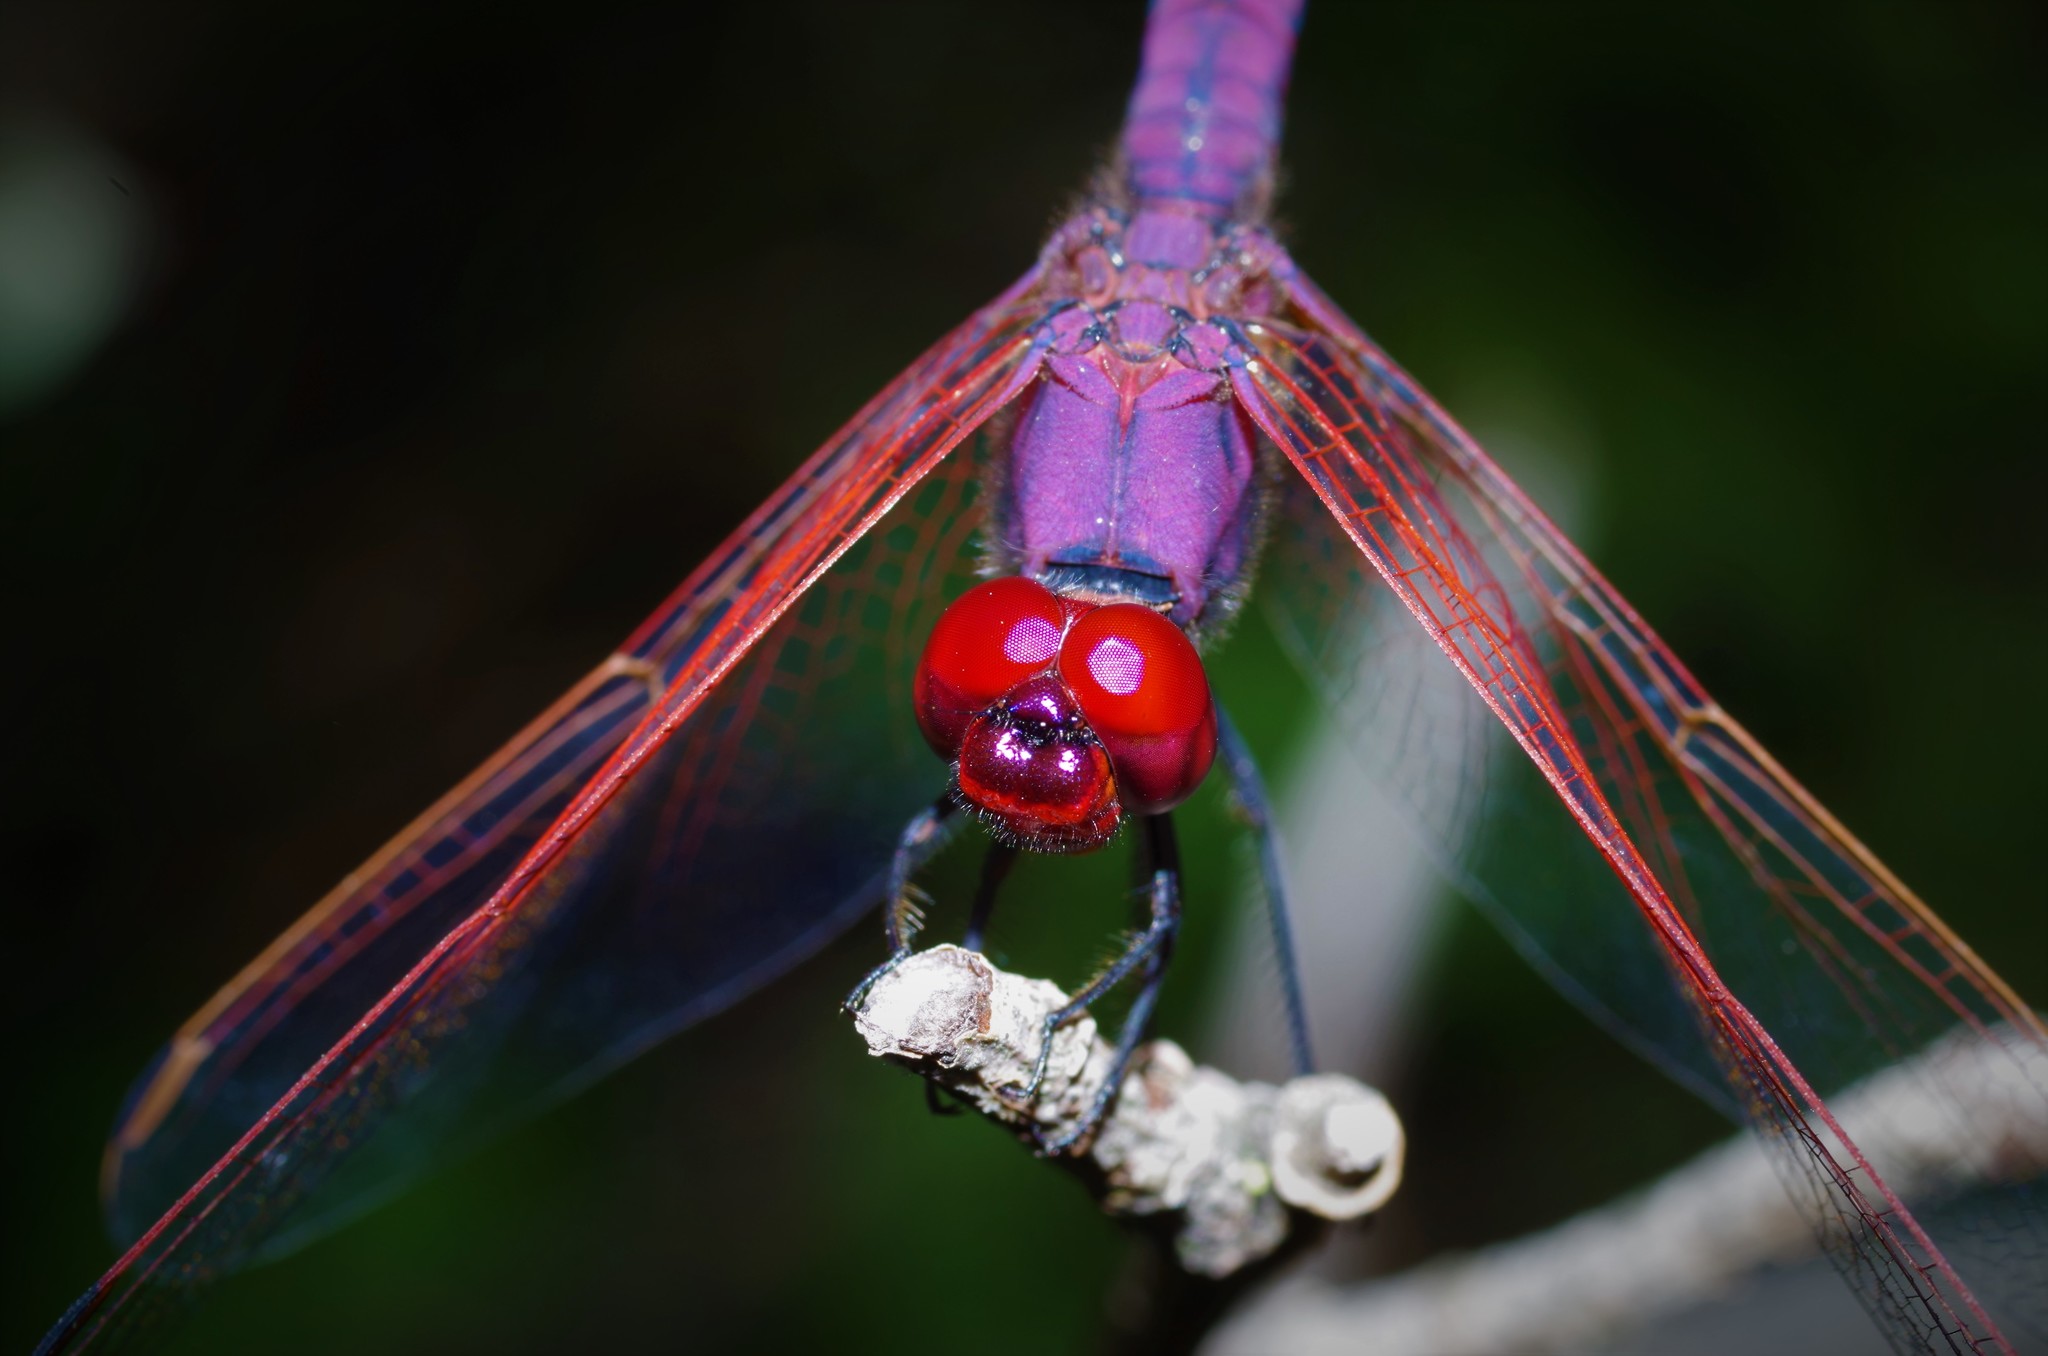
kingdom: Animalia
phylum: Arthropoda
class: Insecta
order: Odonata
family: Libellulidae
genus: Trithemis
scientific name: Trithemis annulata
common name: Violet dropwing
